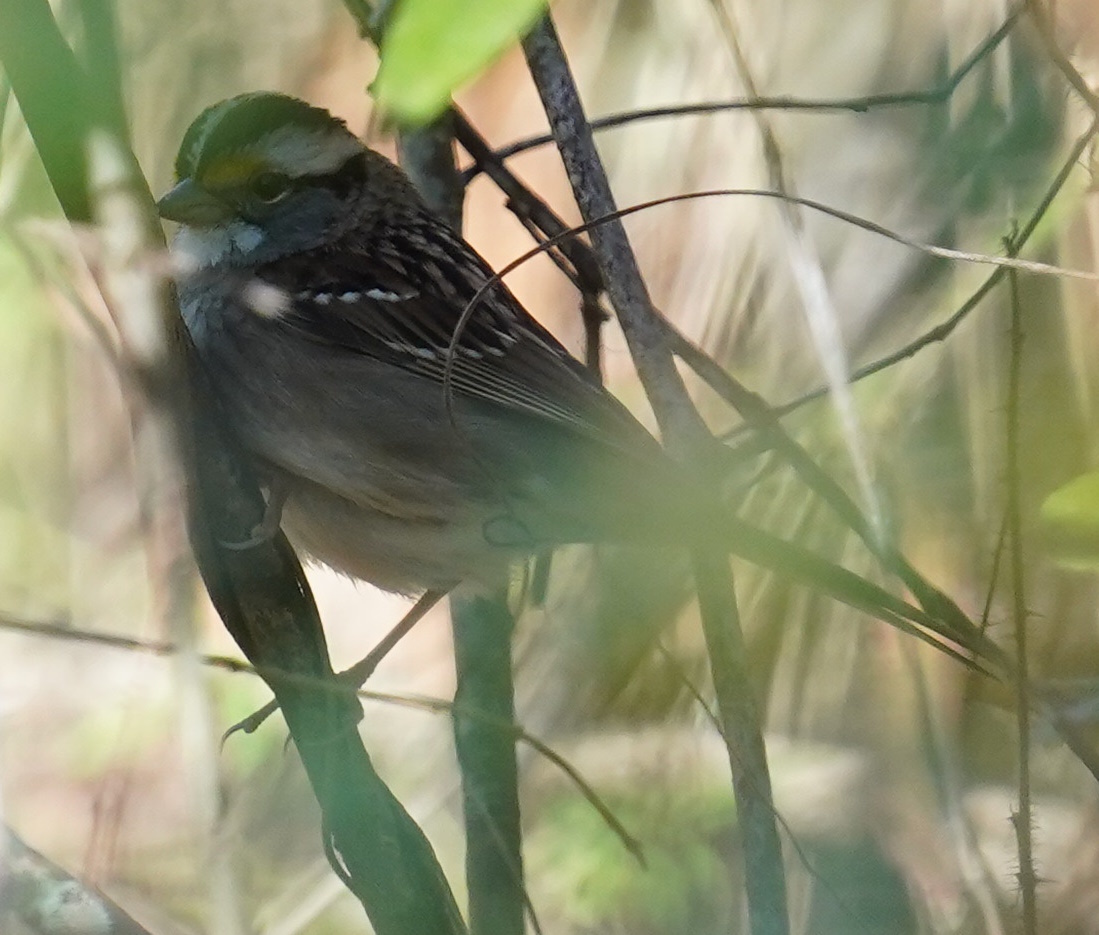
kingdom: Animalia
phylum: Chordata
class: Aves
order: Passeriformes
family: Passerellidae
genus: Zonotrichia
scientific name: Zonotrichia albicollis
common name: White-throated sparrow
